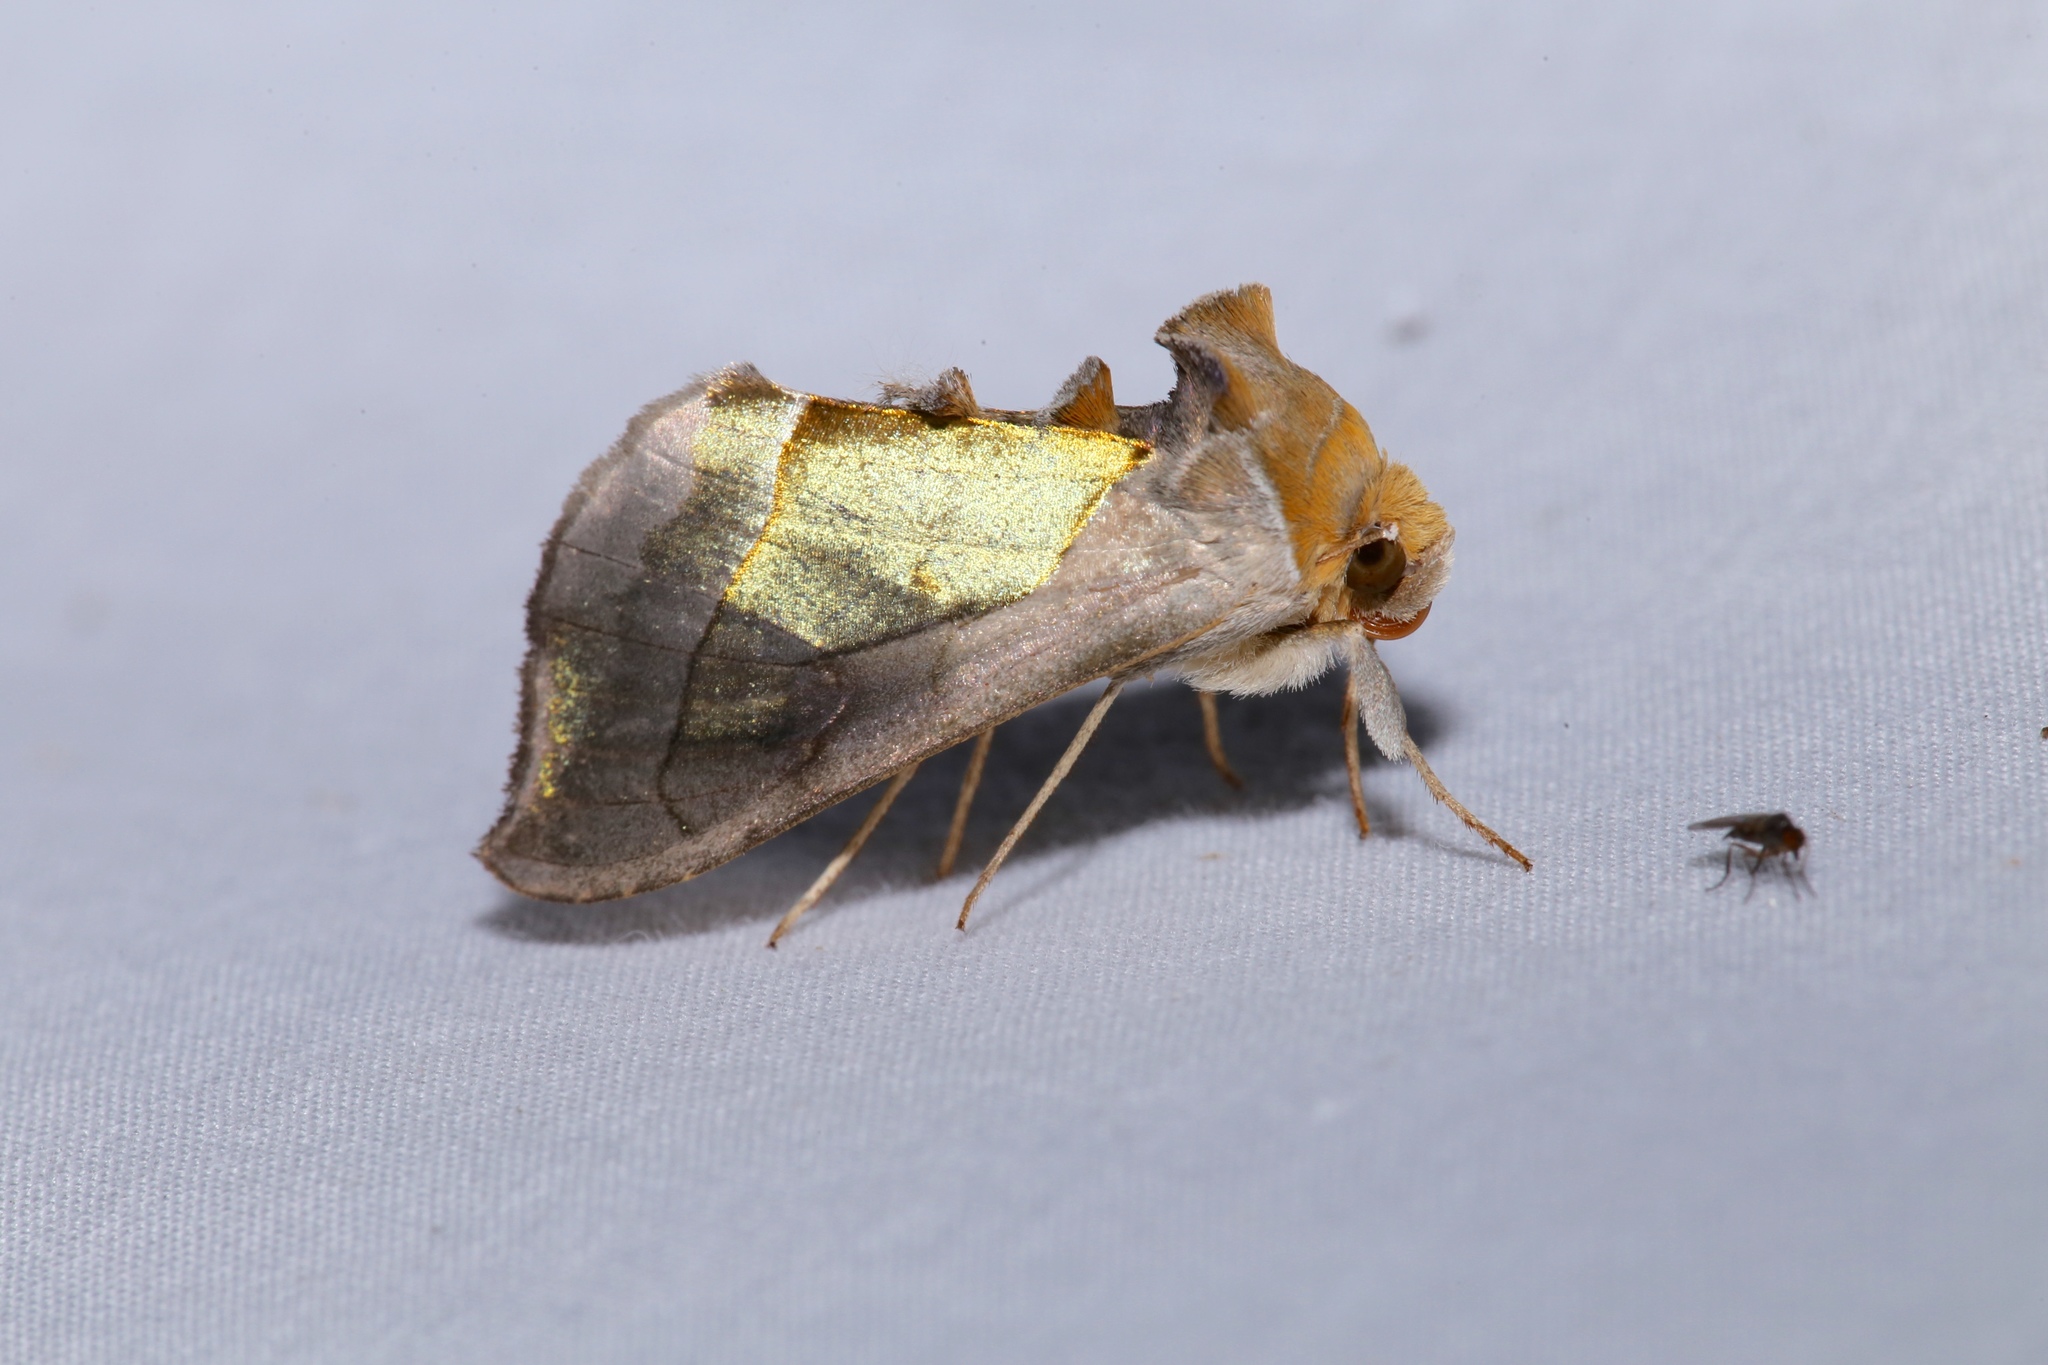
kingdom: Animalia
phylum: Arthropoda
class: Insecta
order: Lepidoptera
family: Noctuidae
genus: Diachrysia
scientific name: Diachrysia balluca
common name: Green-patched looper moth
